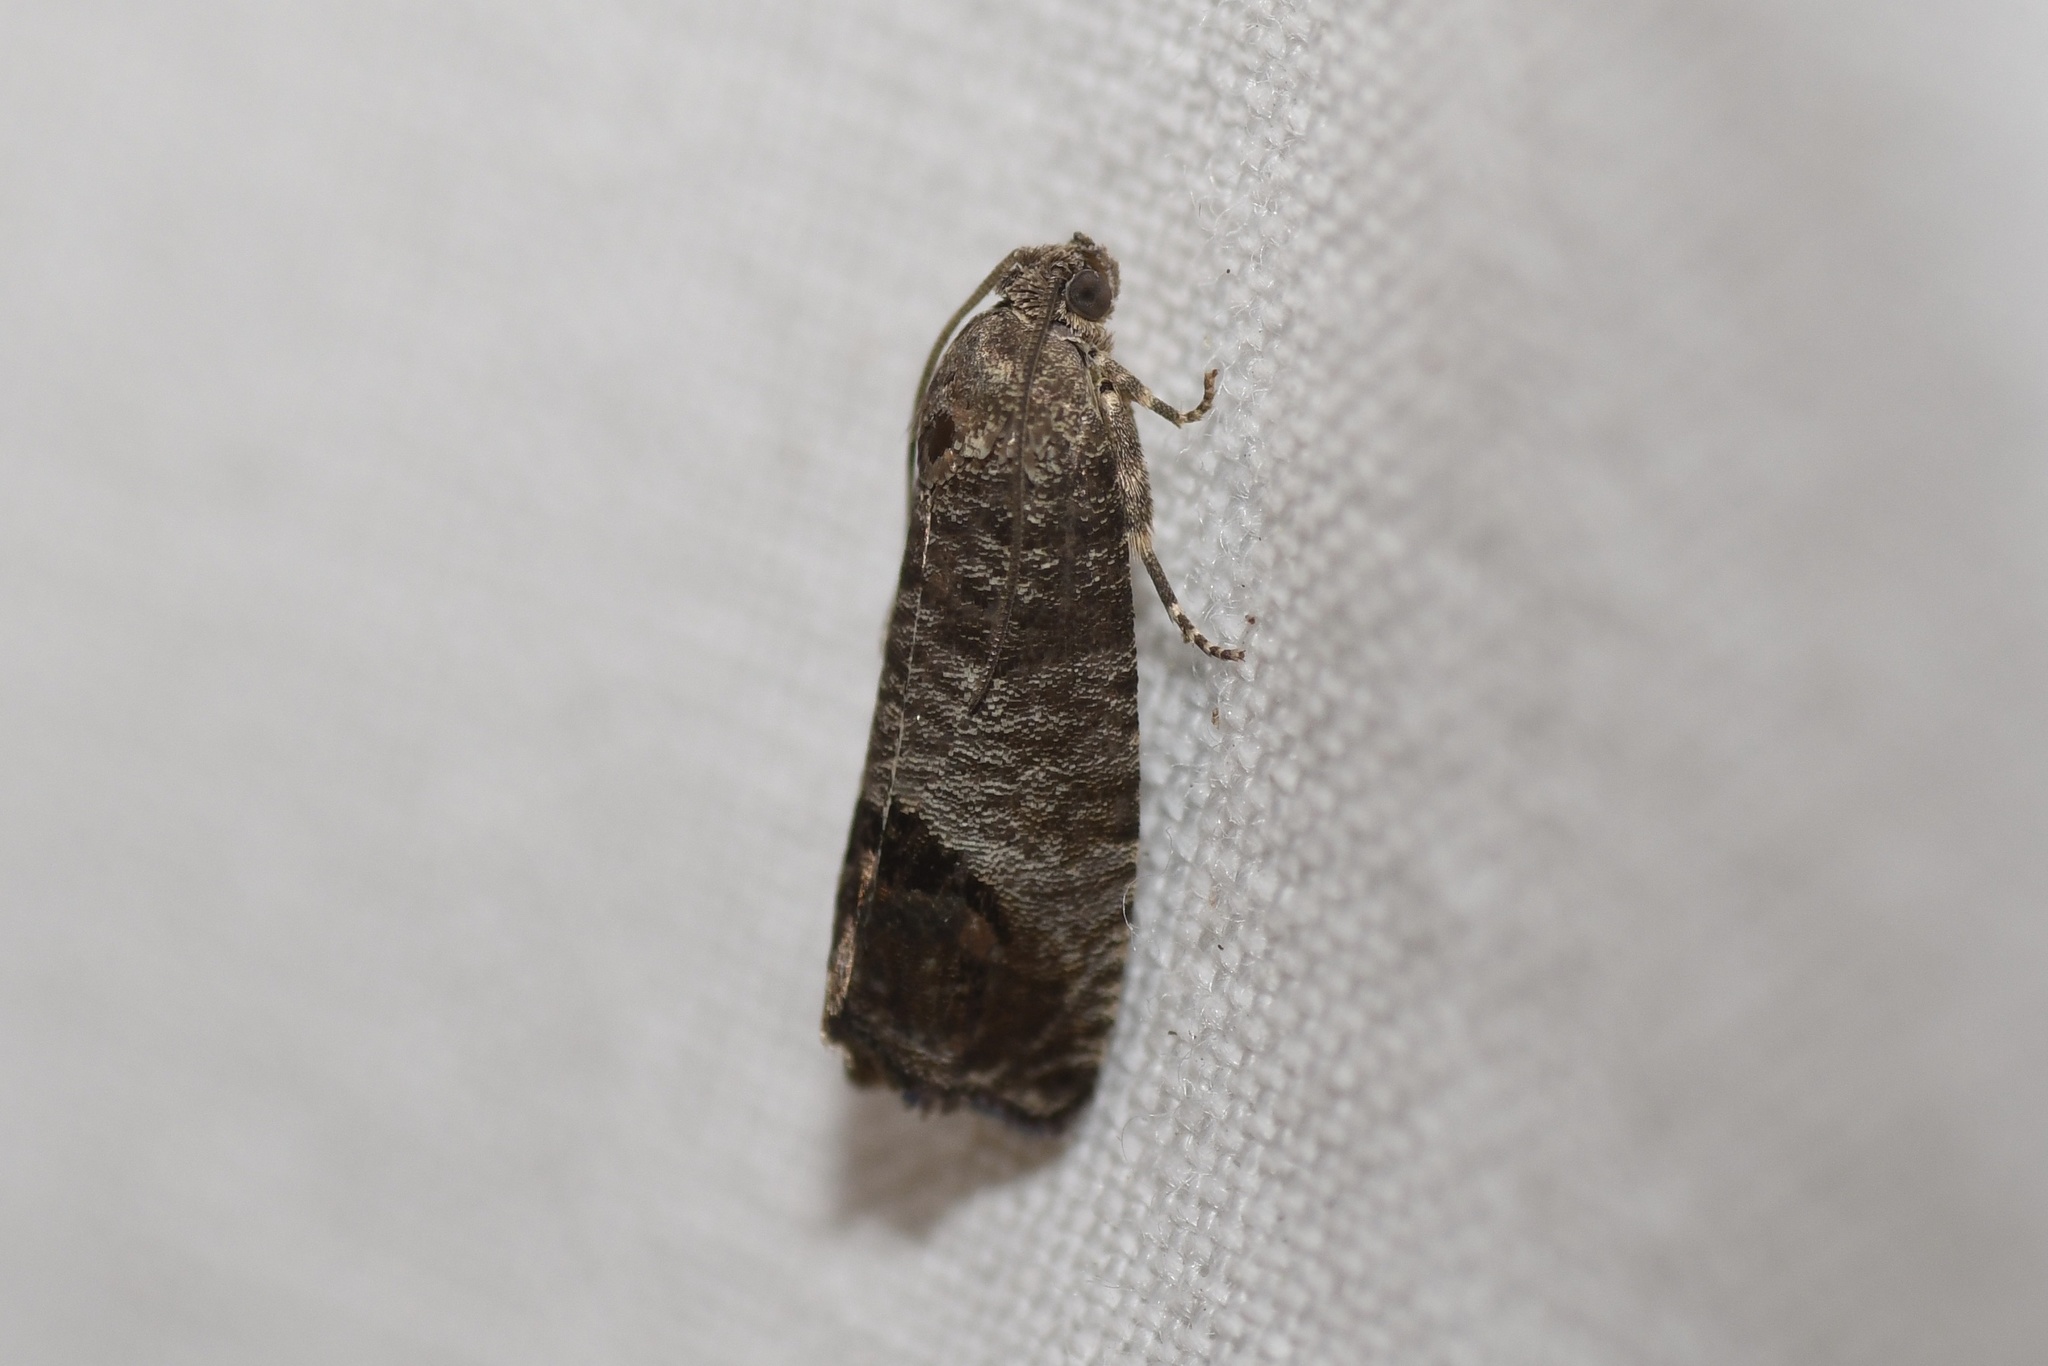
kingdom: Animalia
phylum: Arthropoda
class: Insecta
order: Lepidoptera
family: Tortricidae
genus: Cydia
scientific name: Cydia pomonella
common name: Codling moth
